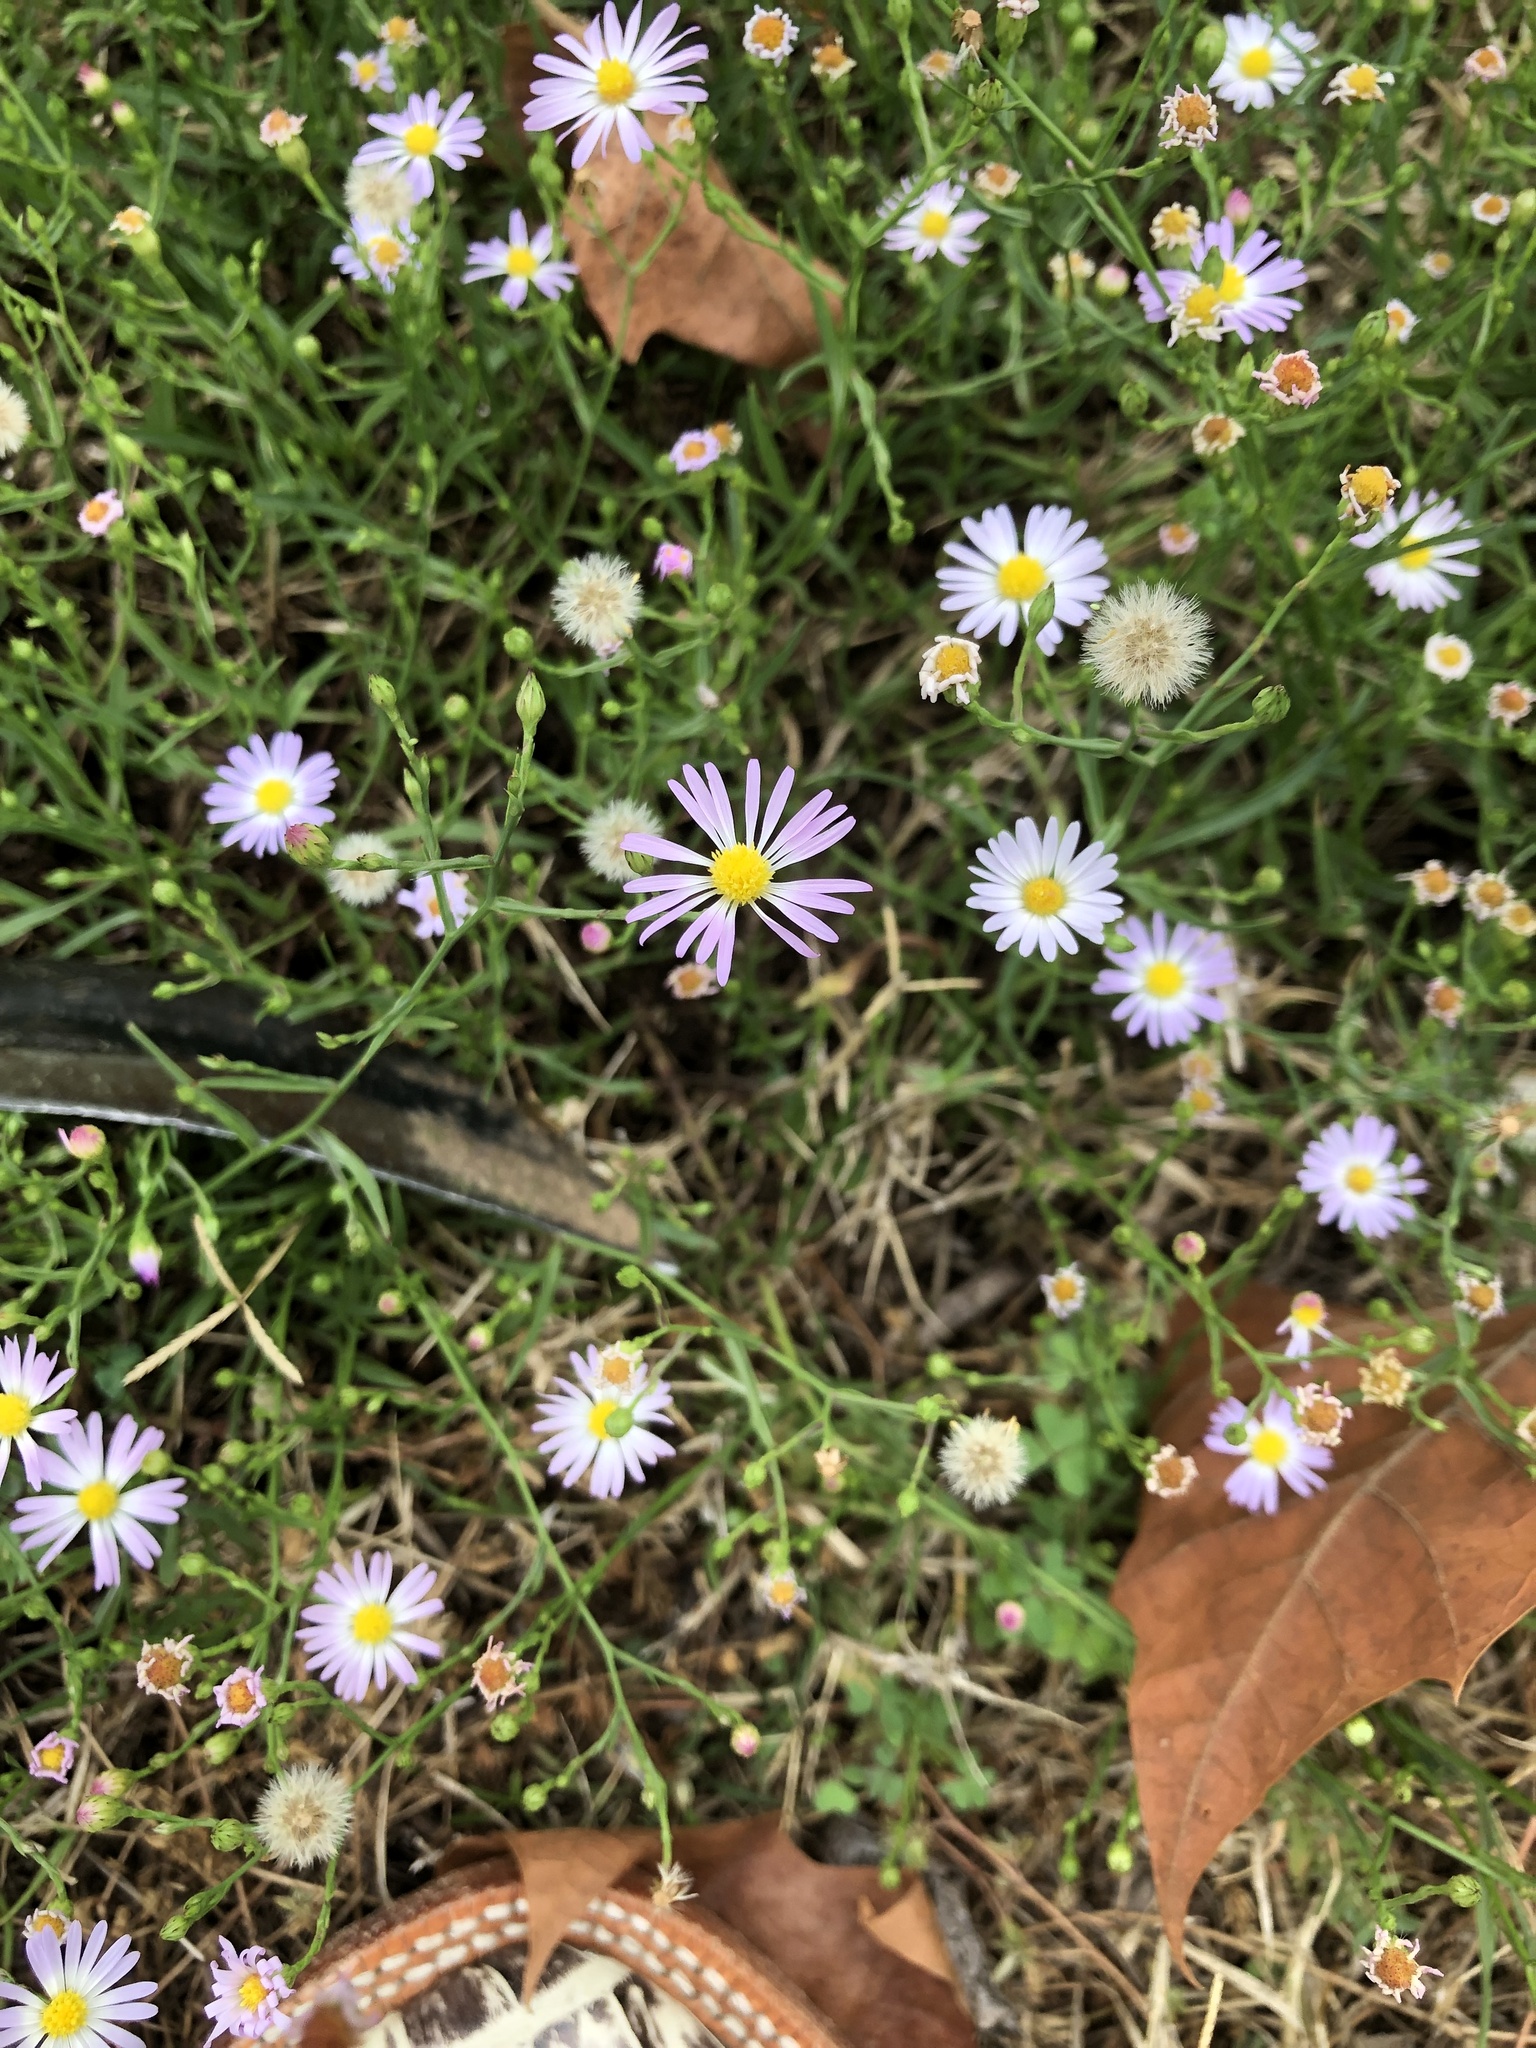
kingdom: Plantae
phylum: Tracheophyta
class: Magnoliopsida
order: Asterales
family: Asteraceae
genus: Symphyotrichum
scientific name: Symphyotrichum divaricatum
